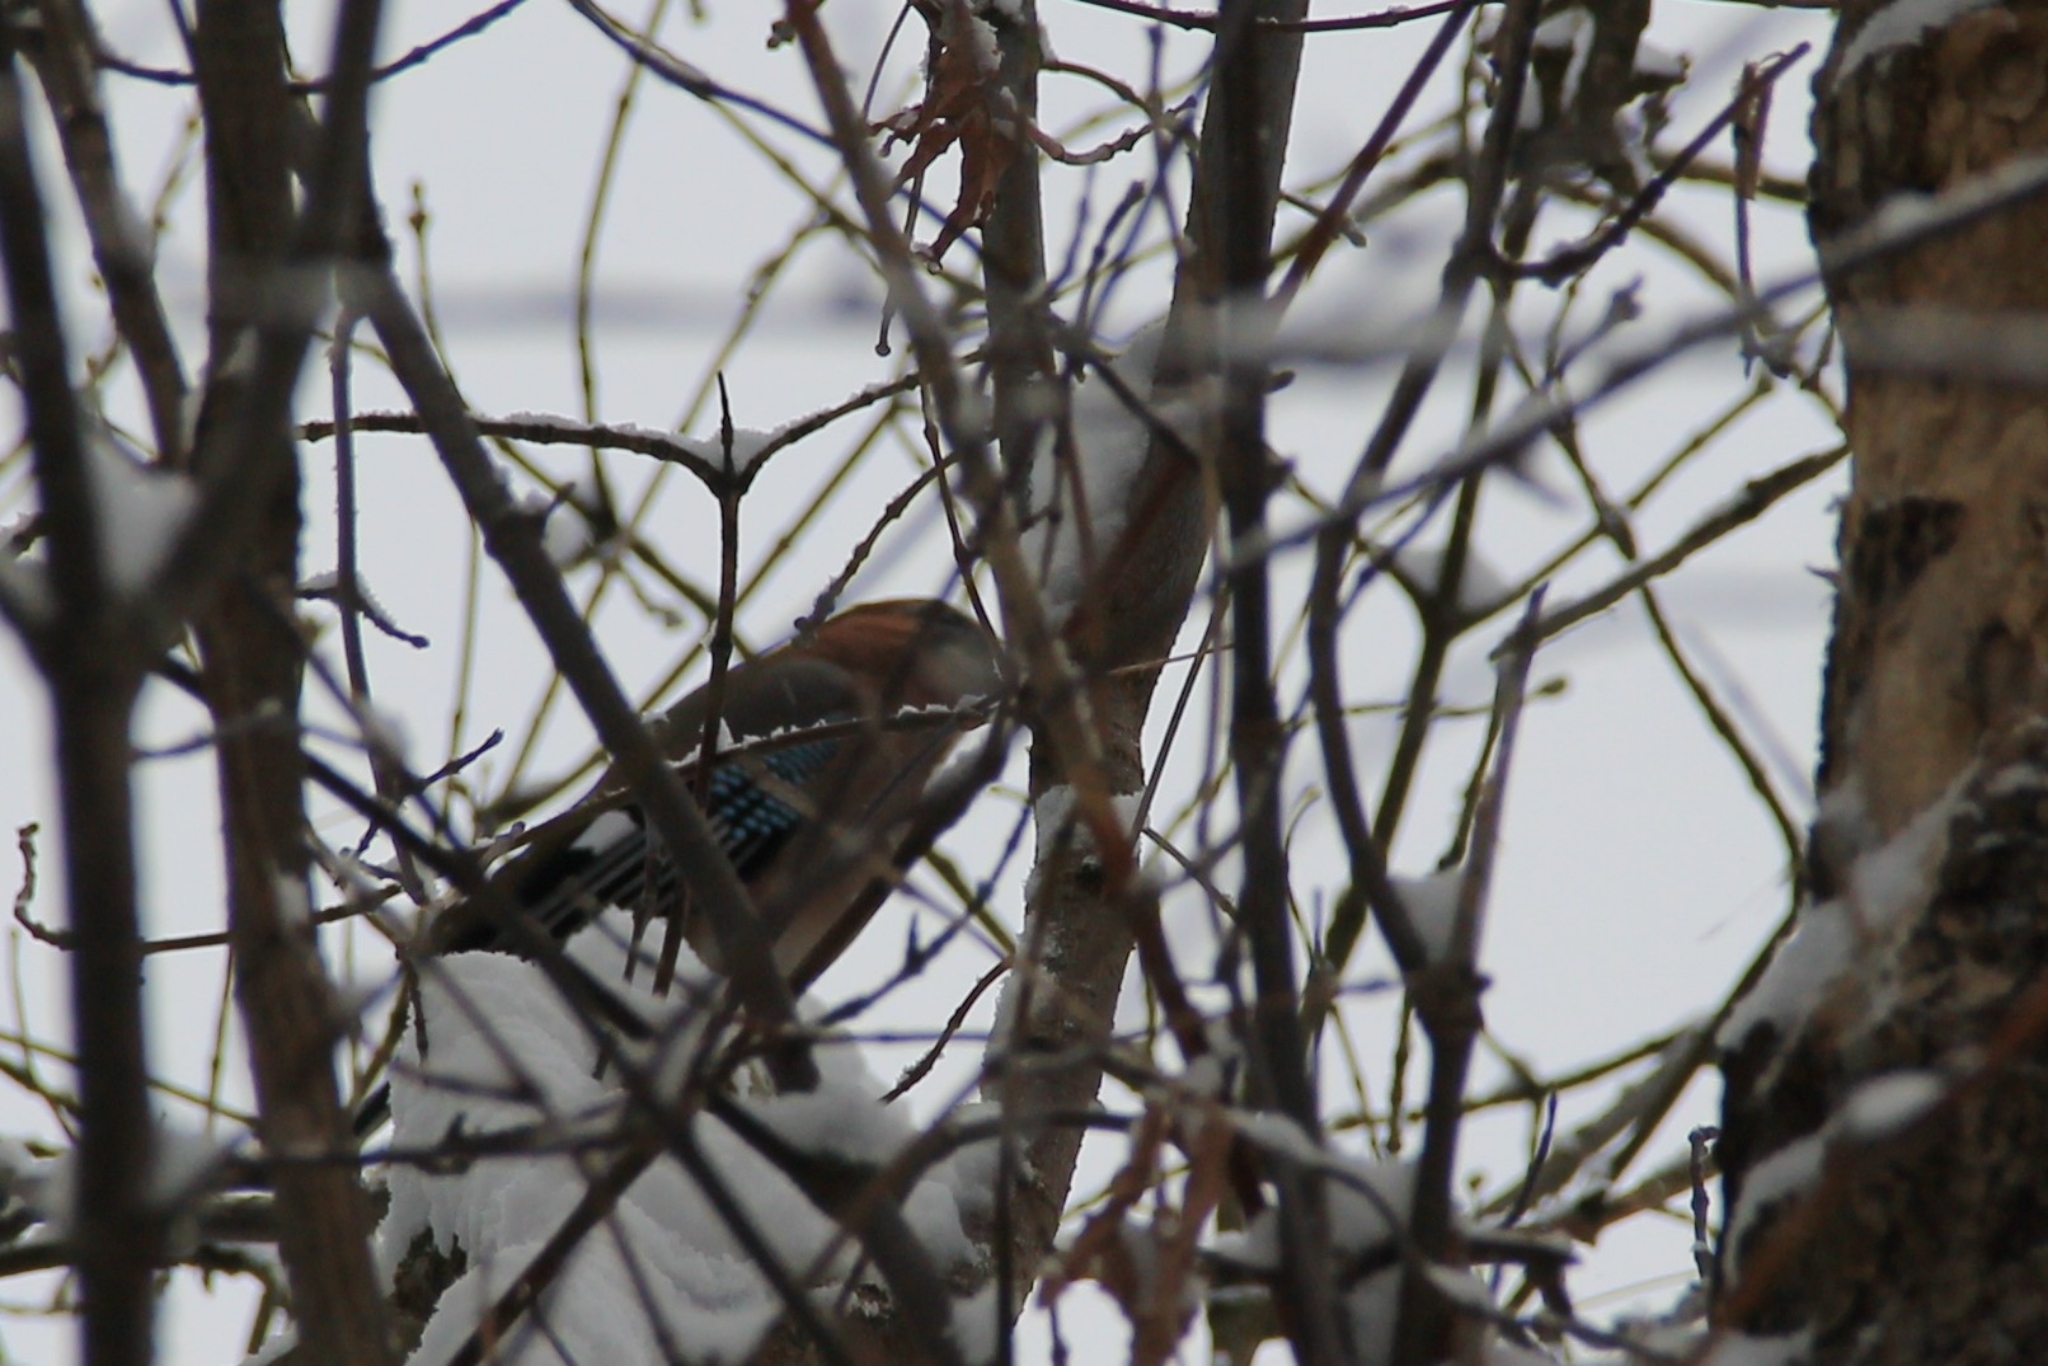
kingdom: Animalia
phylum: Chordata
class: Aves
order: Passeriformes
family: Corvidae
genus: Garrulus
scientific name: Garrulus glandarius
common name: Eurasian jay
